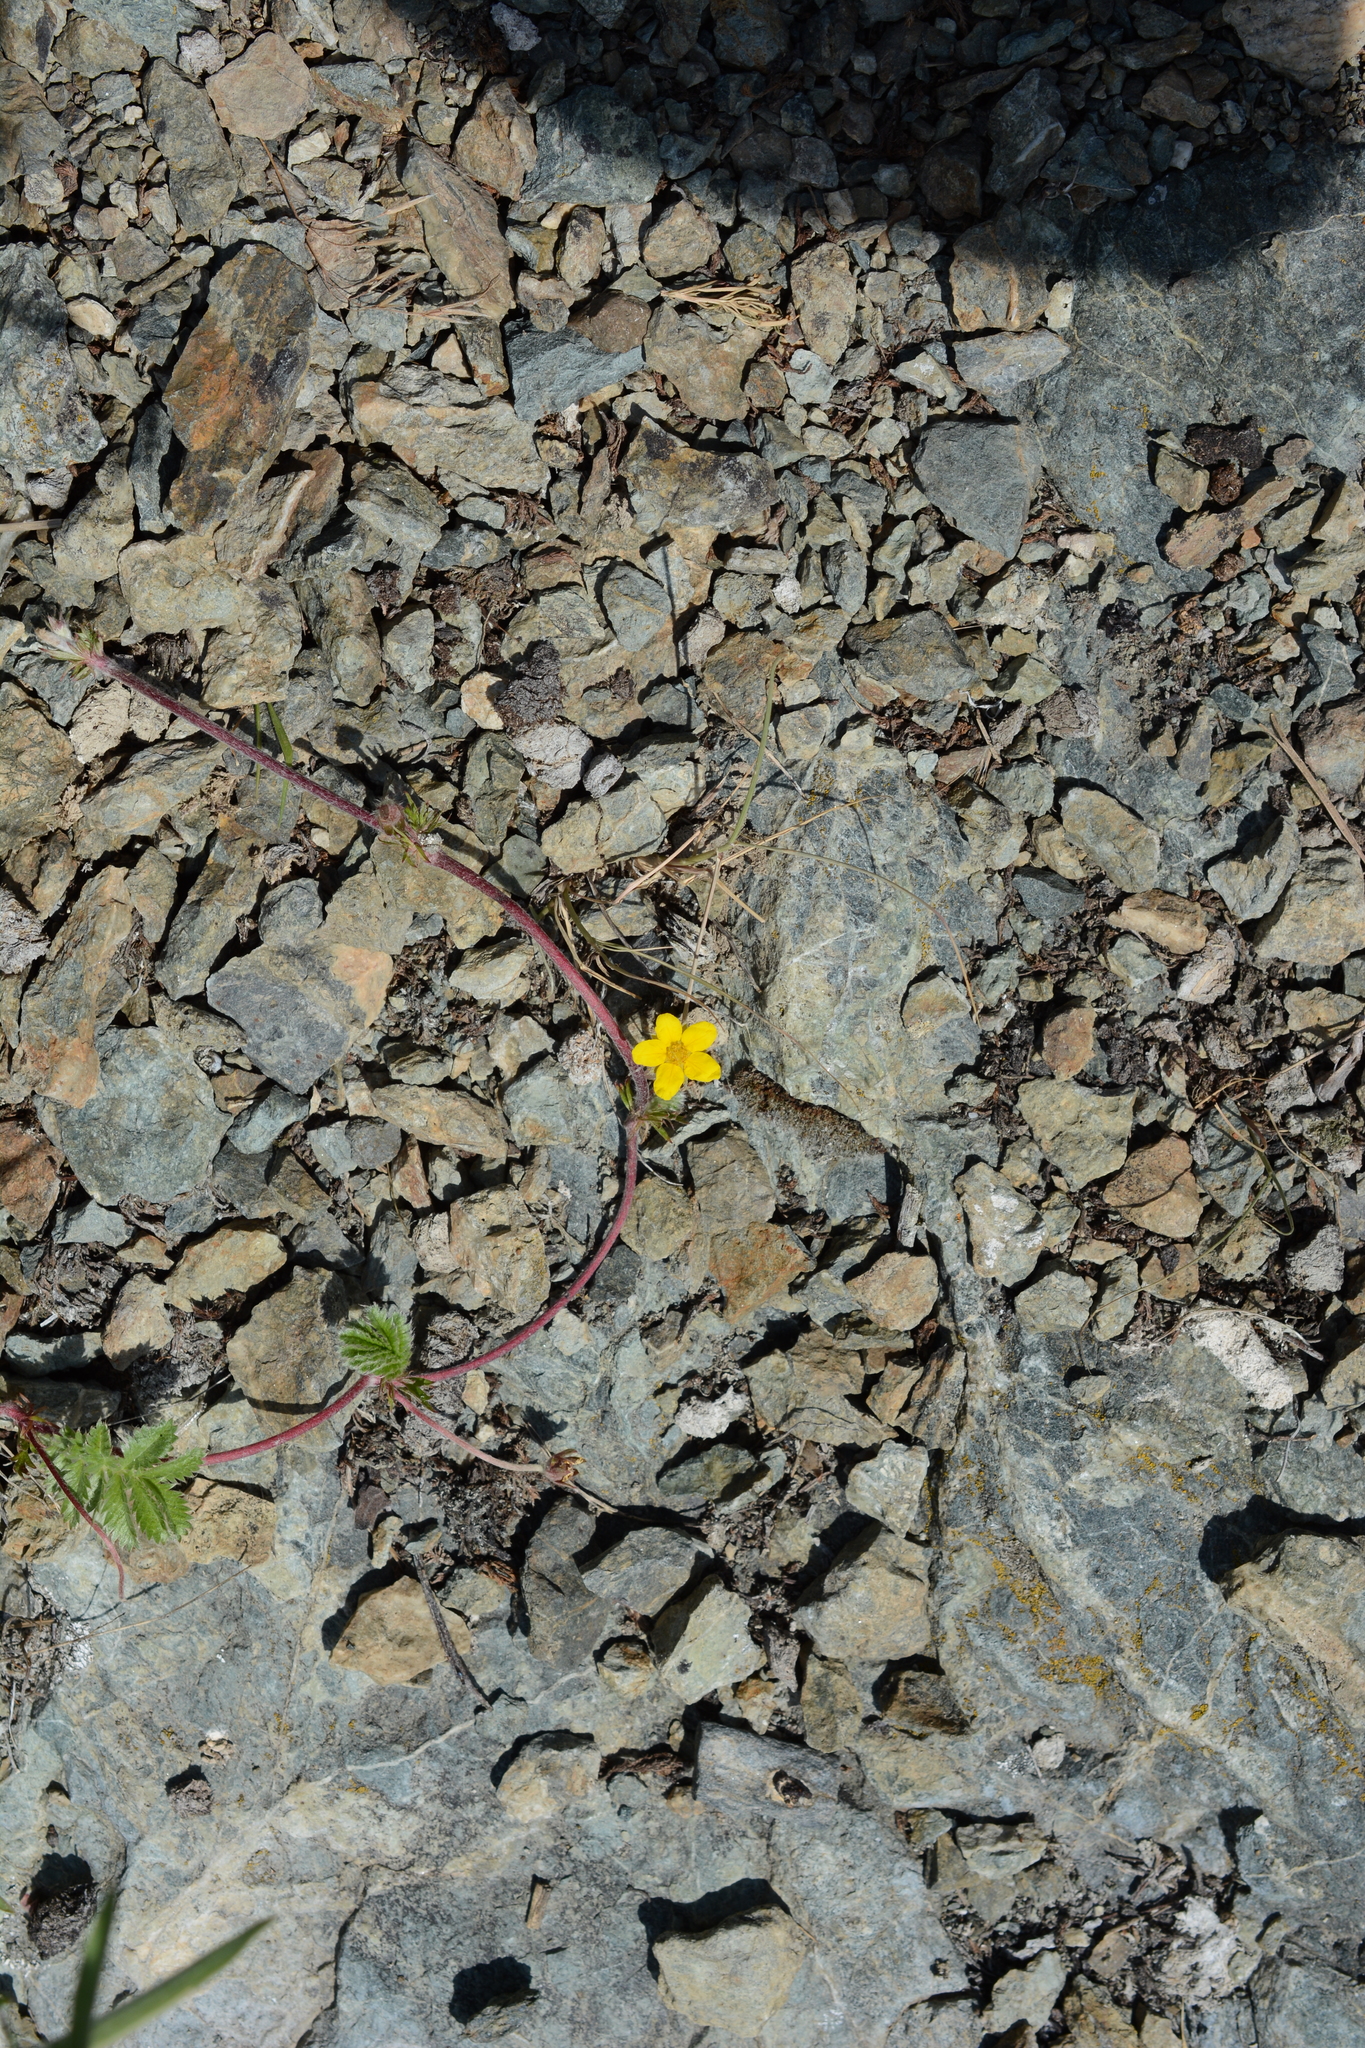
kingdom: Plantae
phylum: Tracheophyta
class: Magnoliopsida
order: Rosales
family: Rosaceae
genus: Argentina
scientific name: Argentina anserina
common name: Common silverweed
